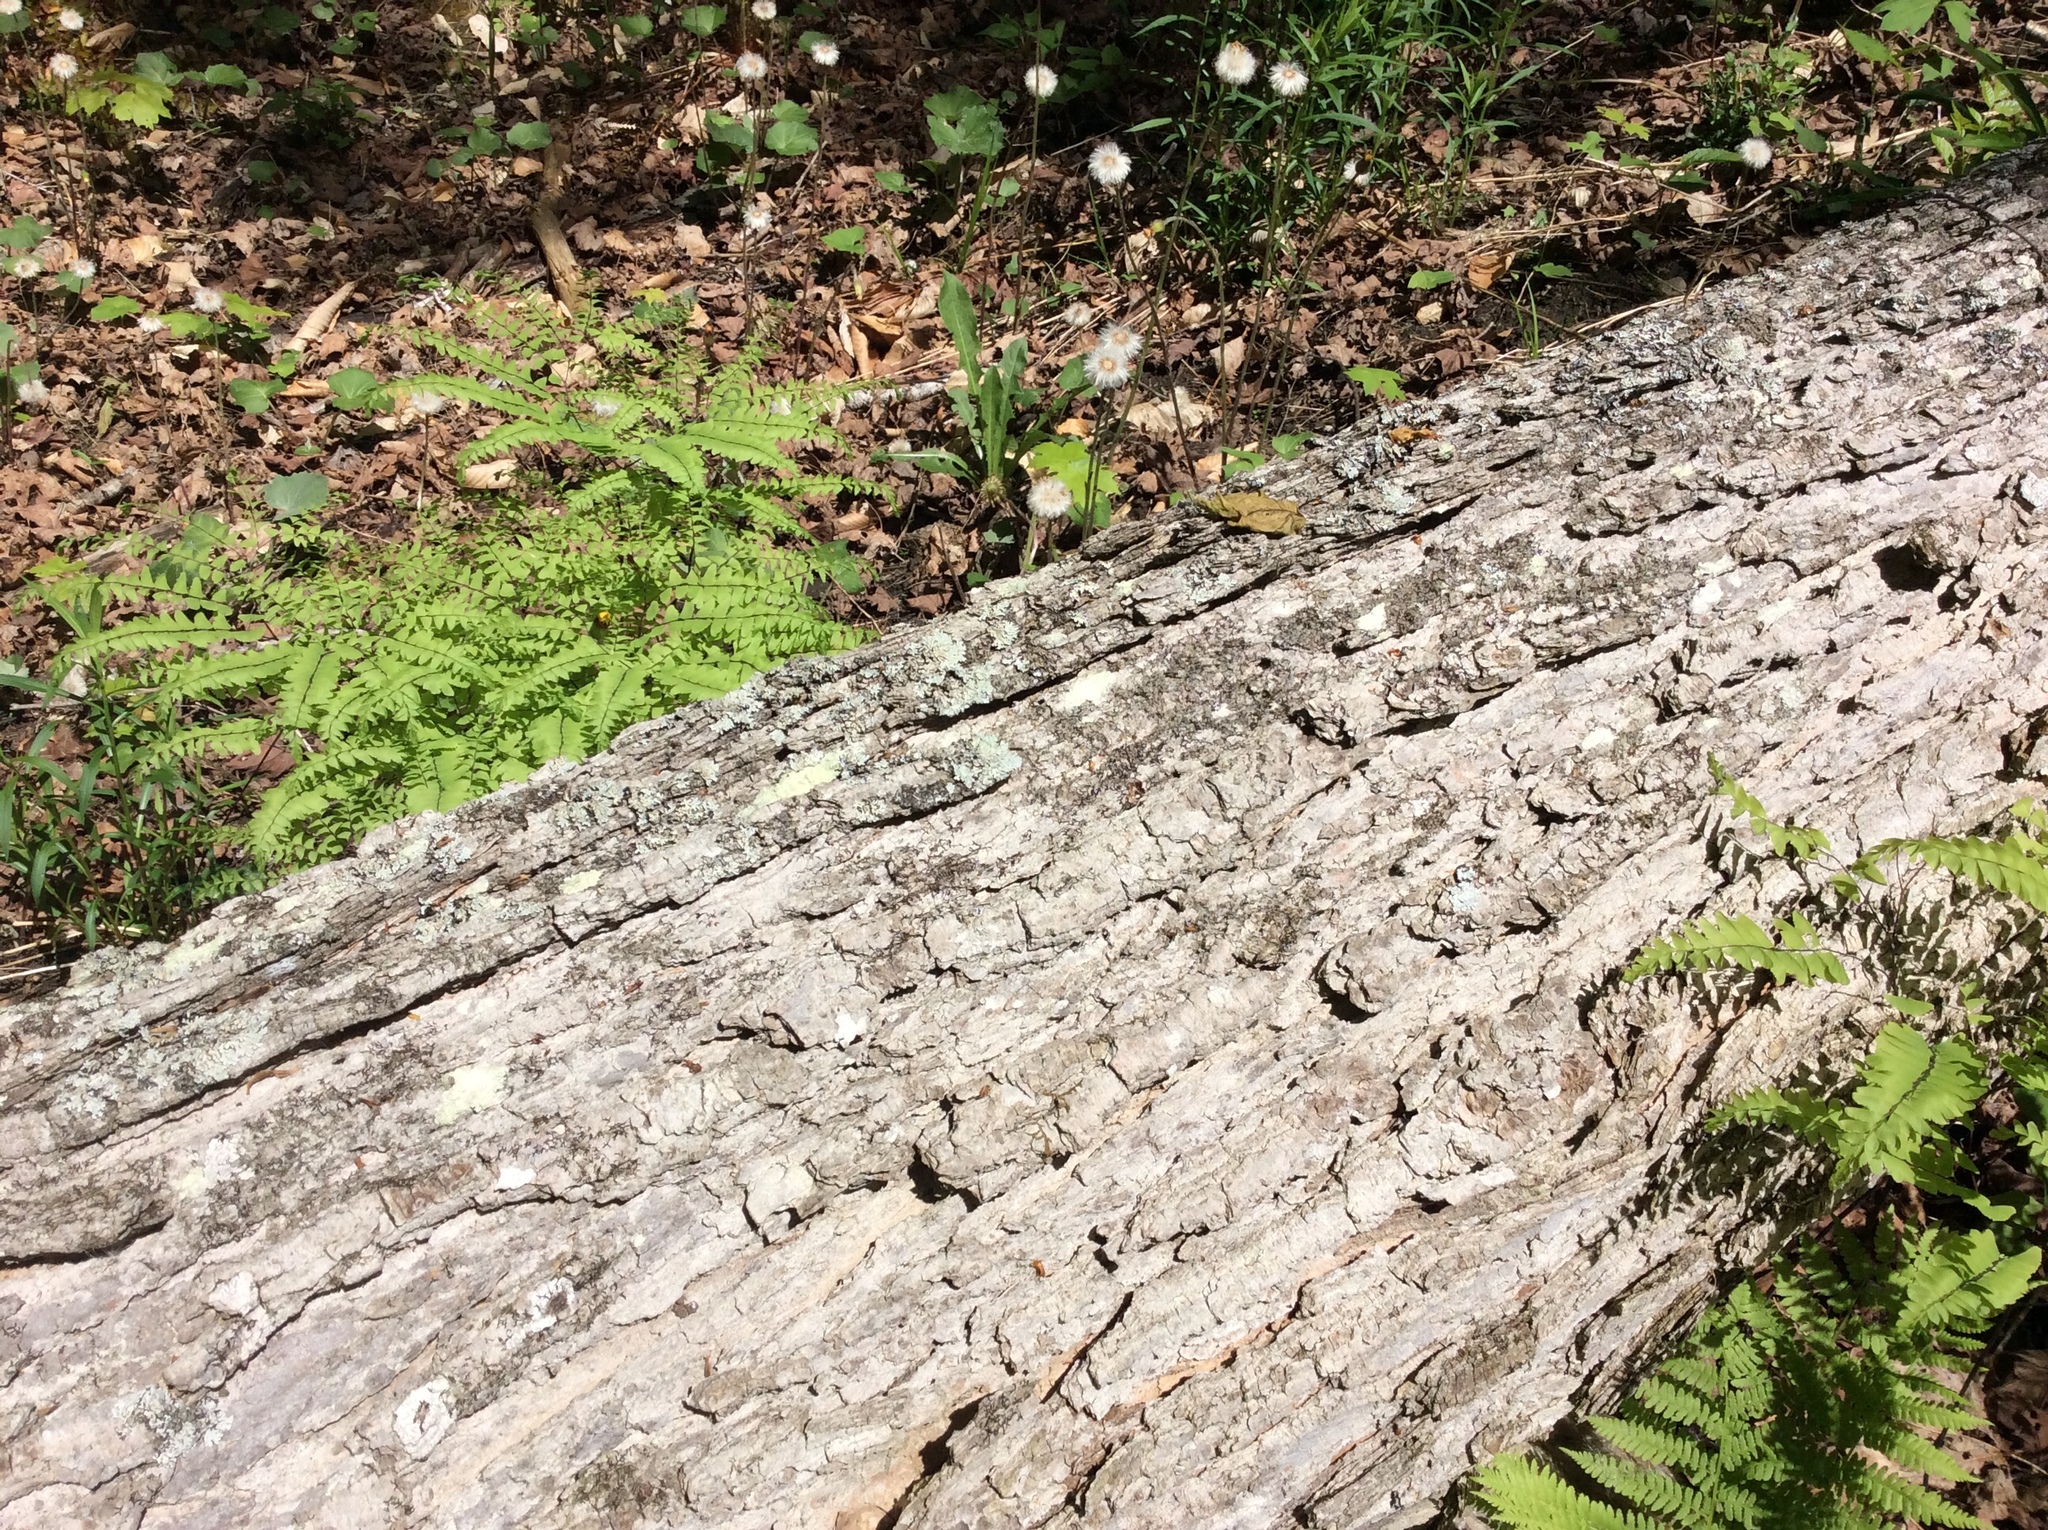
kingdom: Plantae
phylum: Tracheophyta
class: Magnoliopsida
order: Sapindales
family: Sapindaceae
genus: Acer
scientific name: Acer saccharum
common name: Sugar maple
